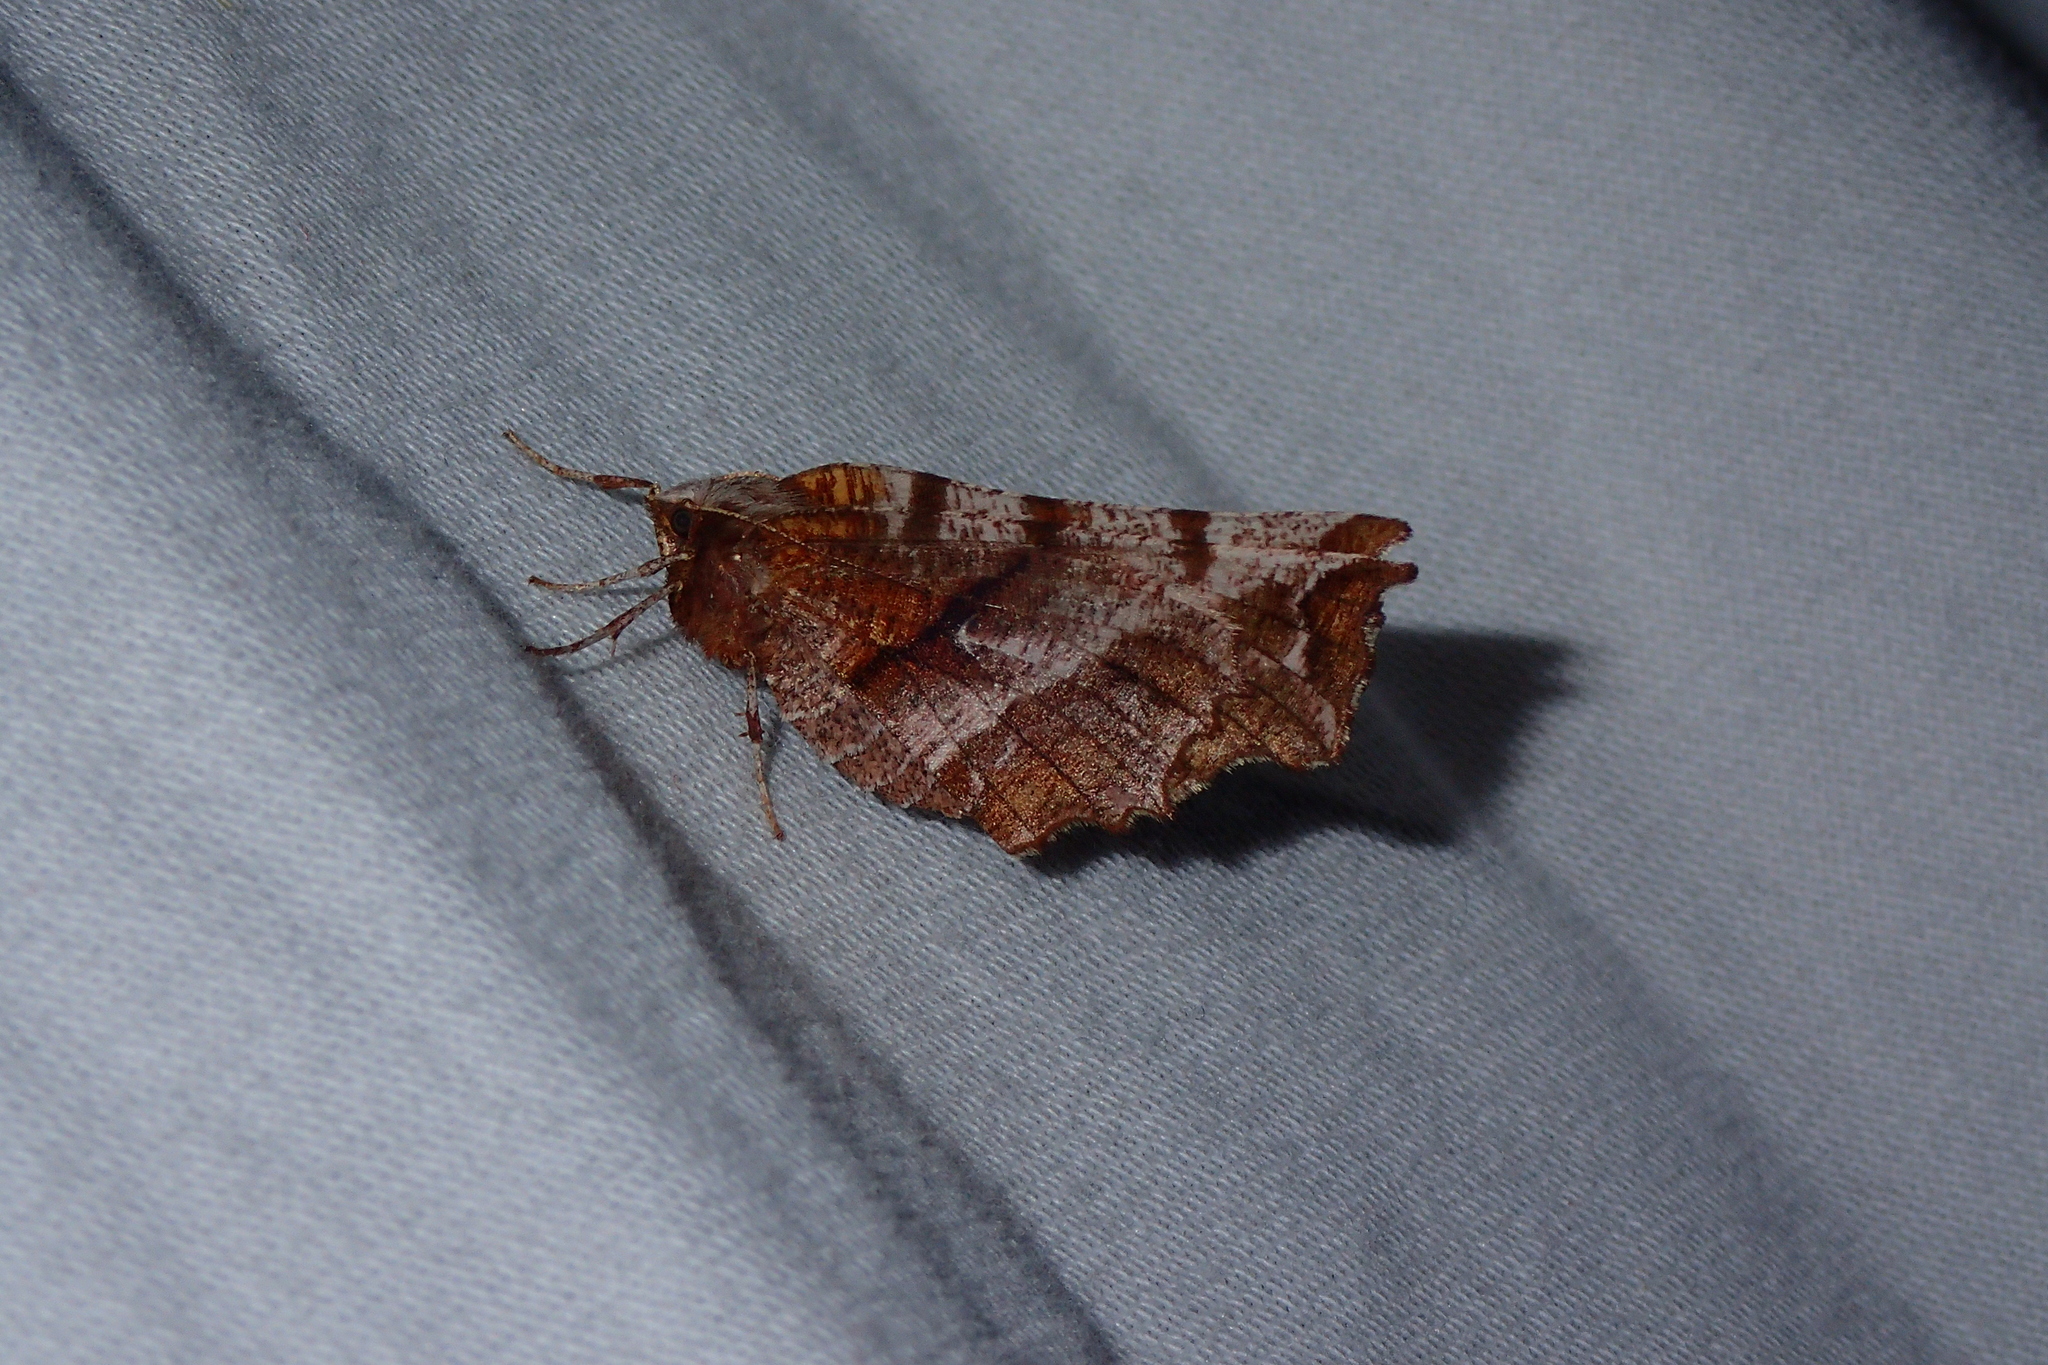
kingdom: Animalia
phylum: Arthropoda
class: Insecta
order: Lepidoptera
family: Geometridae
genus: Selenia
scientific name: Selenia dentaria
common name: Early thorn
